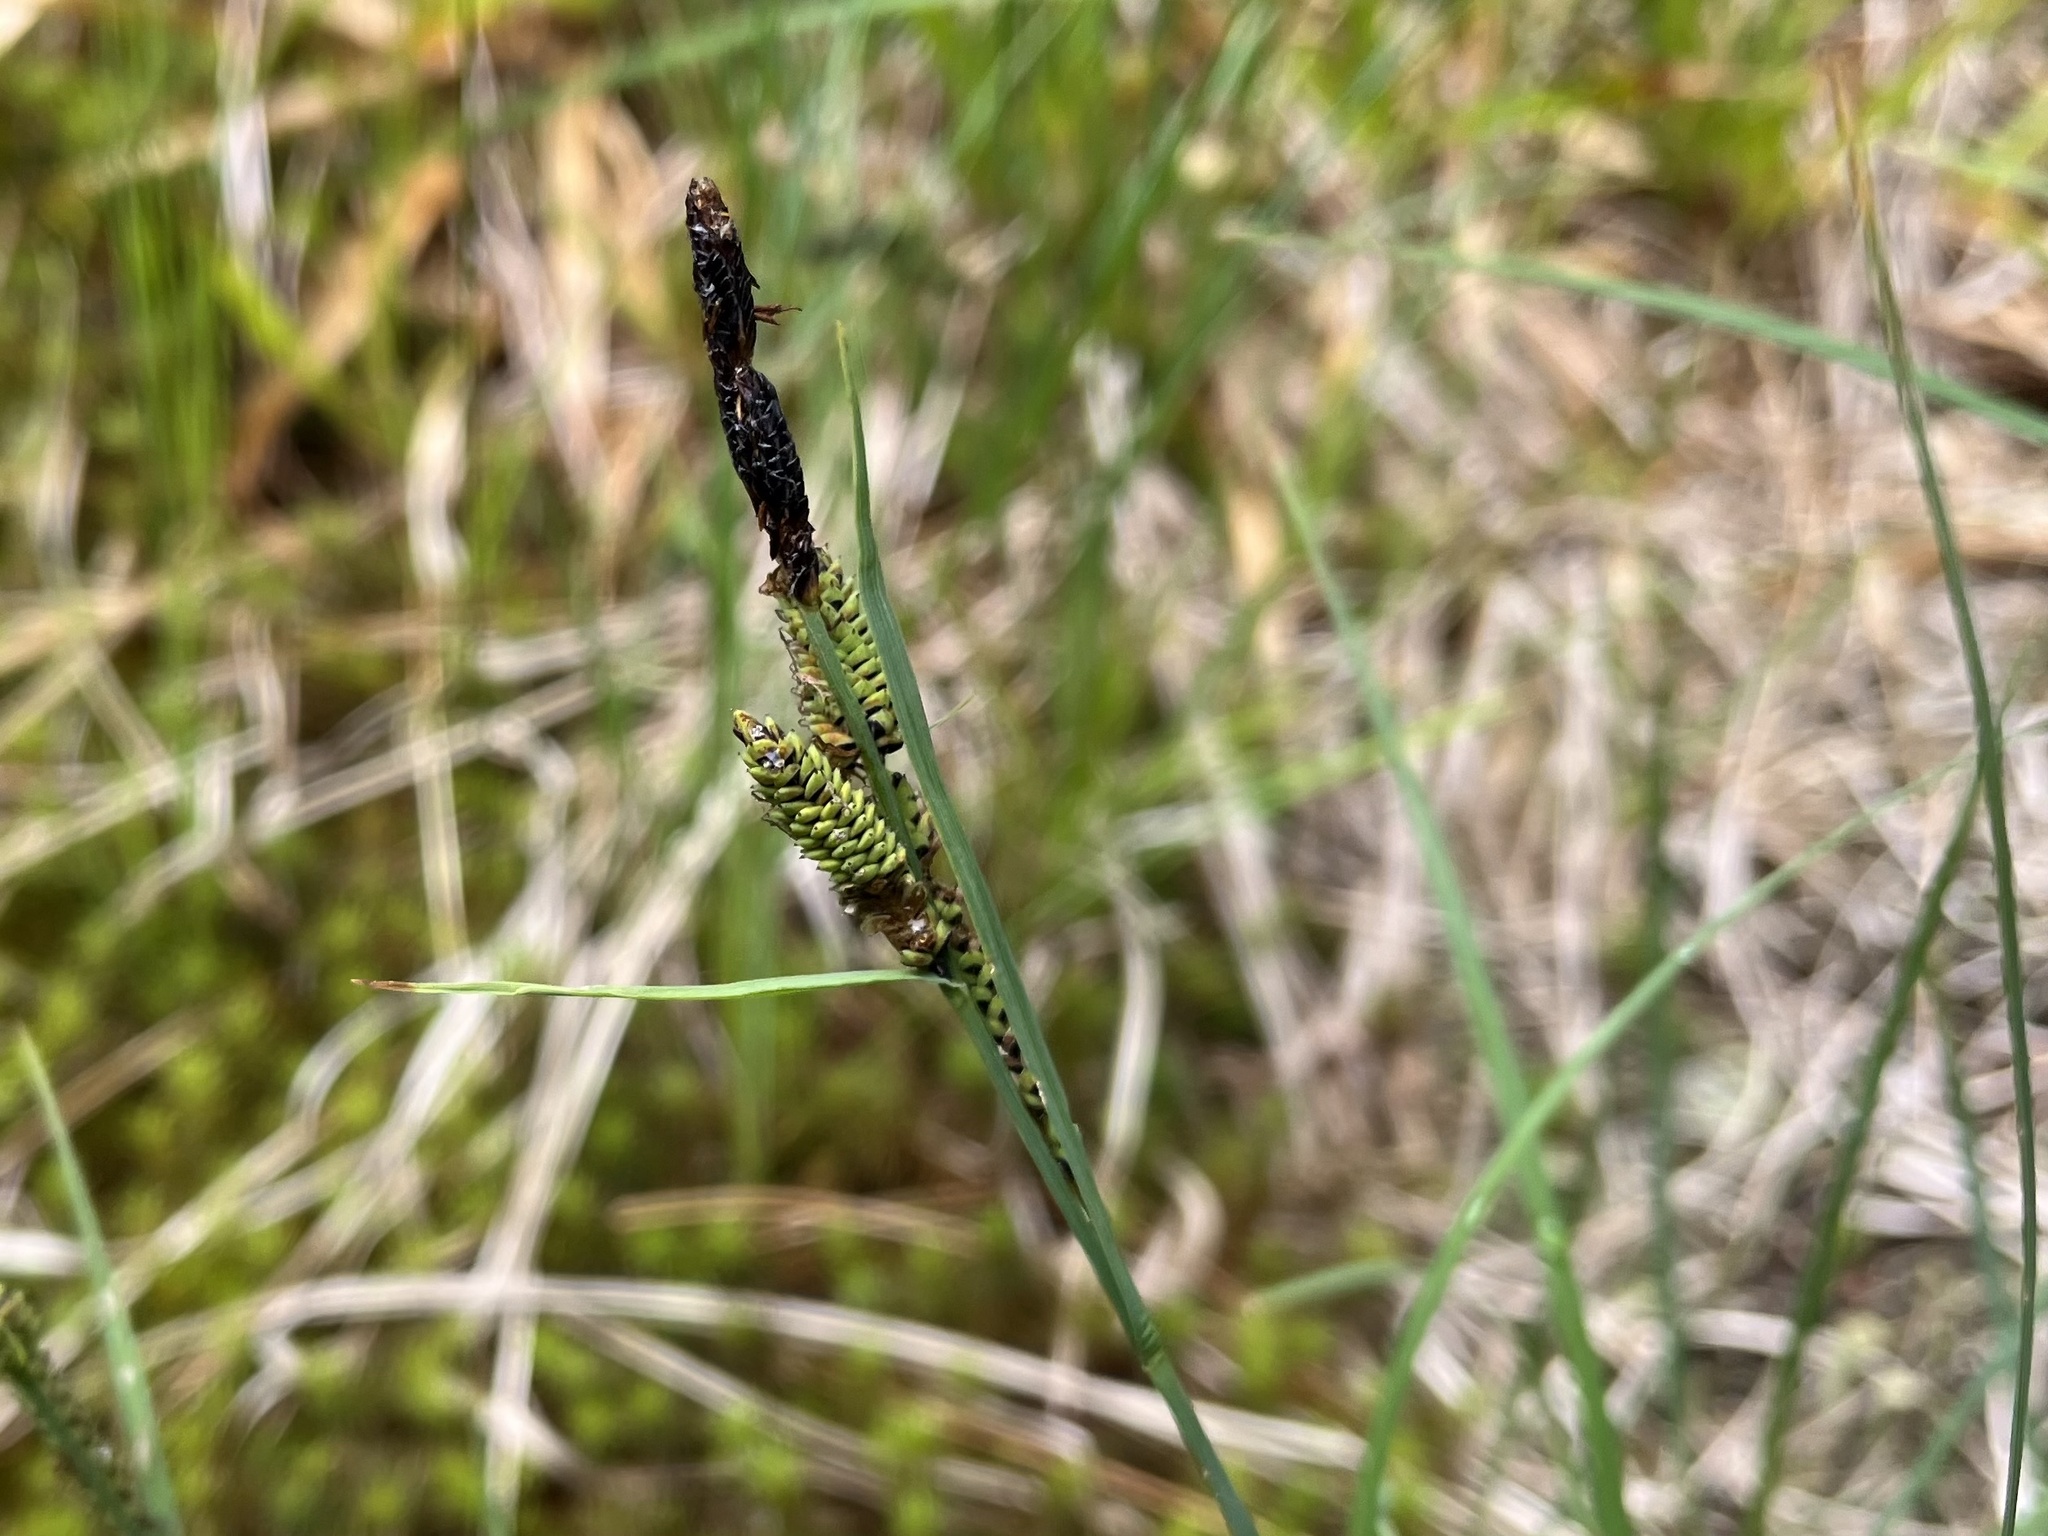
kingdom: Plantae
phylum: Tracheophyta
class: Liliopsida
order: Poales
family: Cyperaceae
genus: Carex
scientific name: Carex nigra
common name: Common sedge
